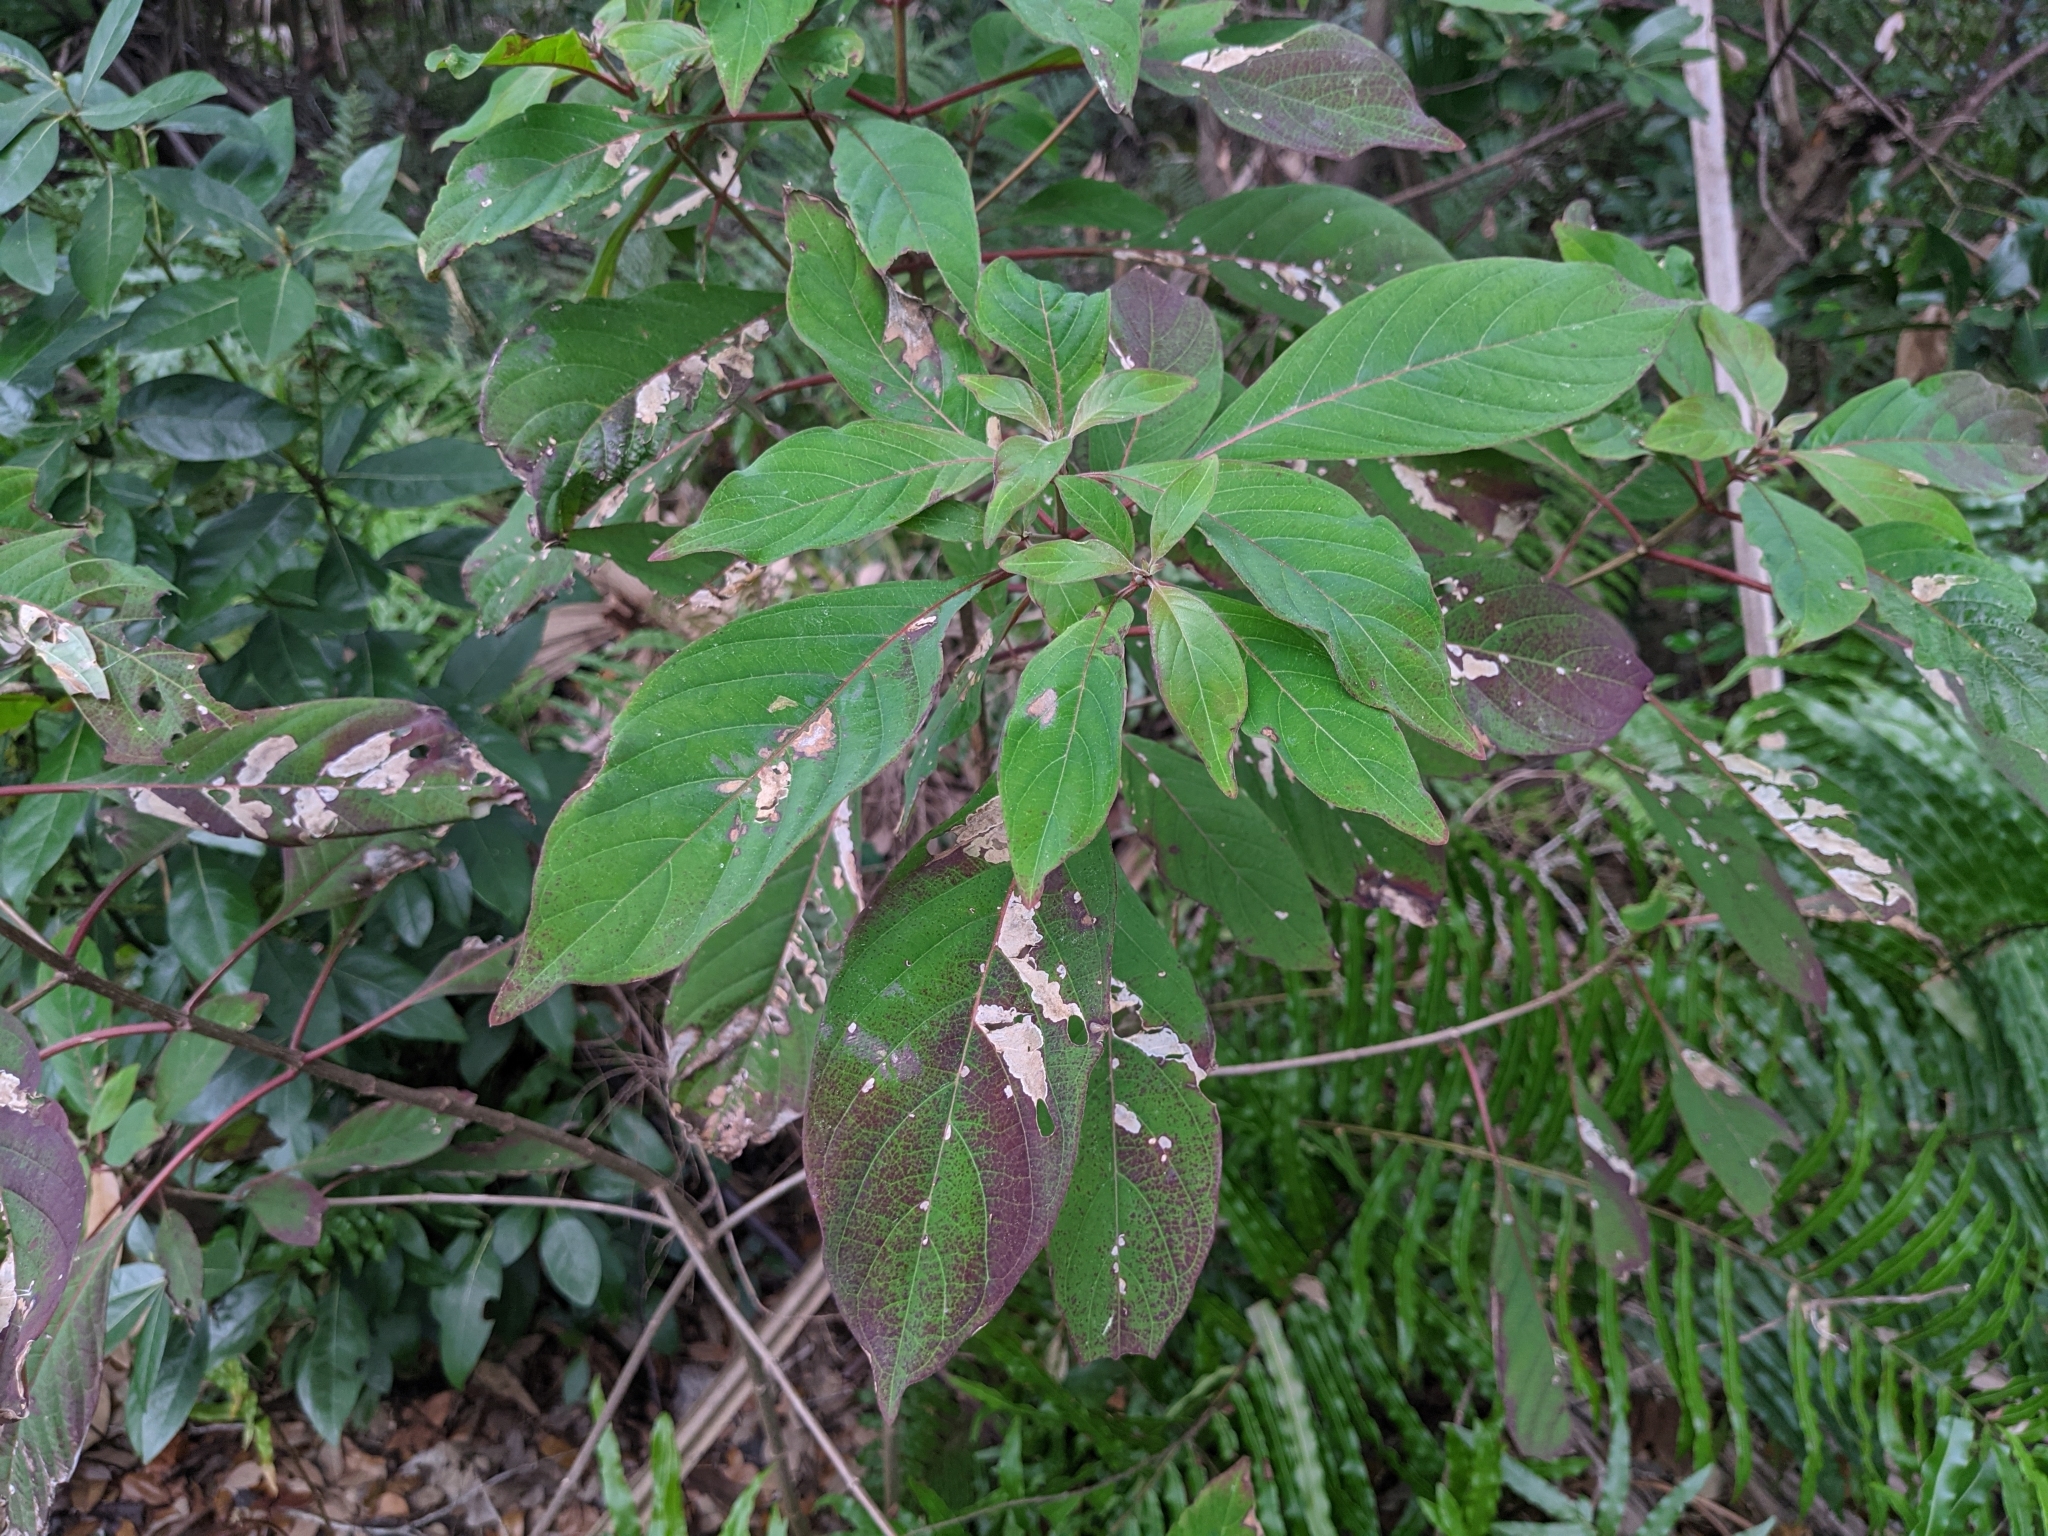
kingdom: Plantae
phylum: Tracheophyta
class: Magnoliopsida
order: Gentianales
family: Rubiaceae
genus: Hamelia
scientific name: Hamelia patens
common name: Redhead
